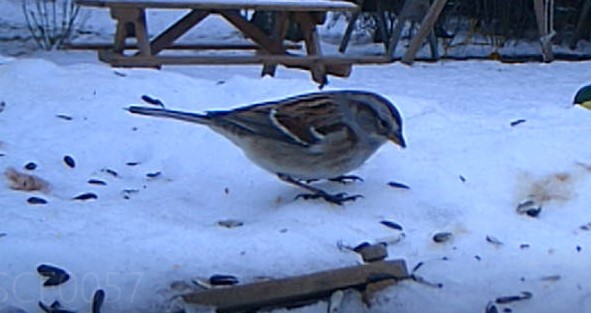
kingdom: Animalia
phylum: Chordata
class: Aves
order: Passeriformes
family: Passerellidae
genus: Spizelloides
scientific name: Spizelloides arborea
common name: American tree sparrow
